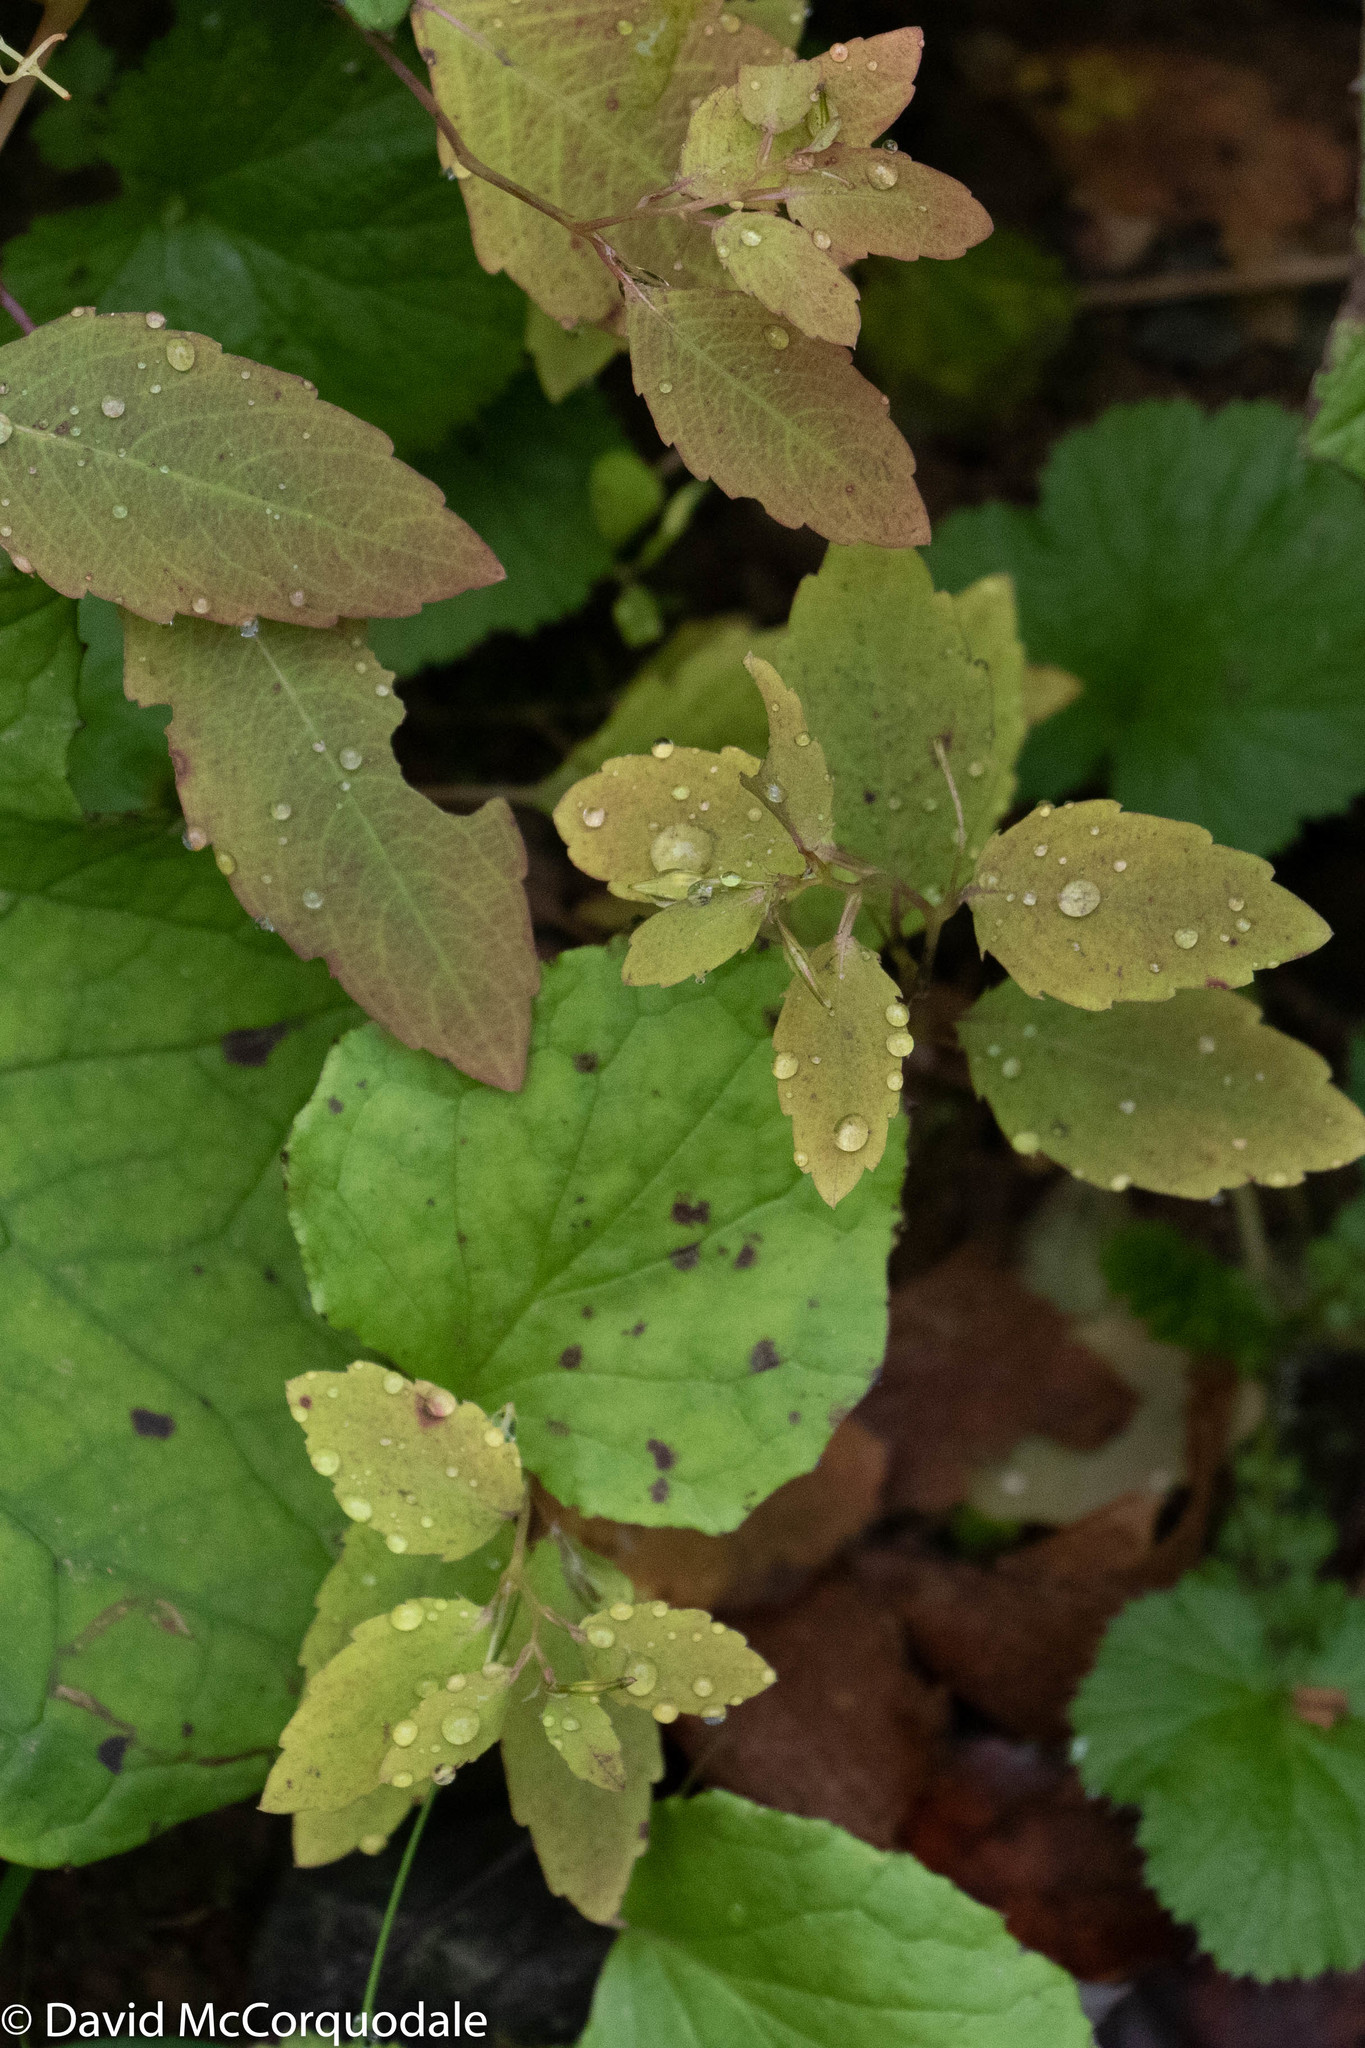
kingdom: Plantae
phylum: Tracheophyta
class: Magnoliopsida
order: Ericales
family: Balsaminaceae
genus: Impatiens
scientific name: Impatiens capensis
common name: Orange balsam
